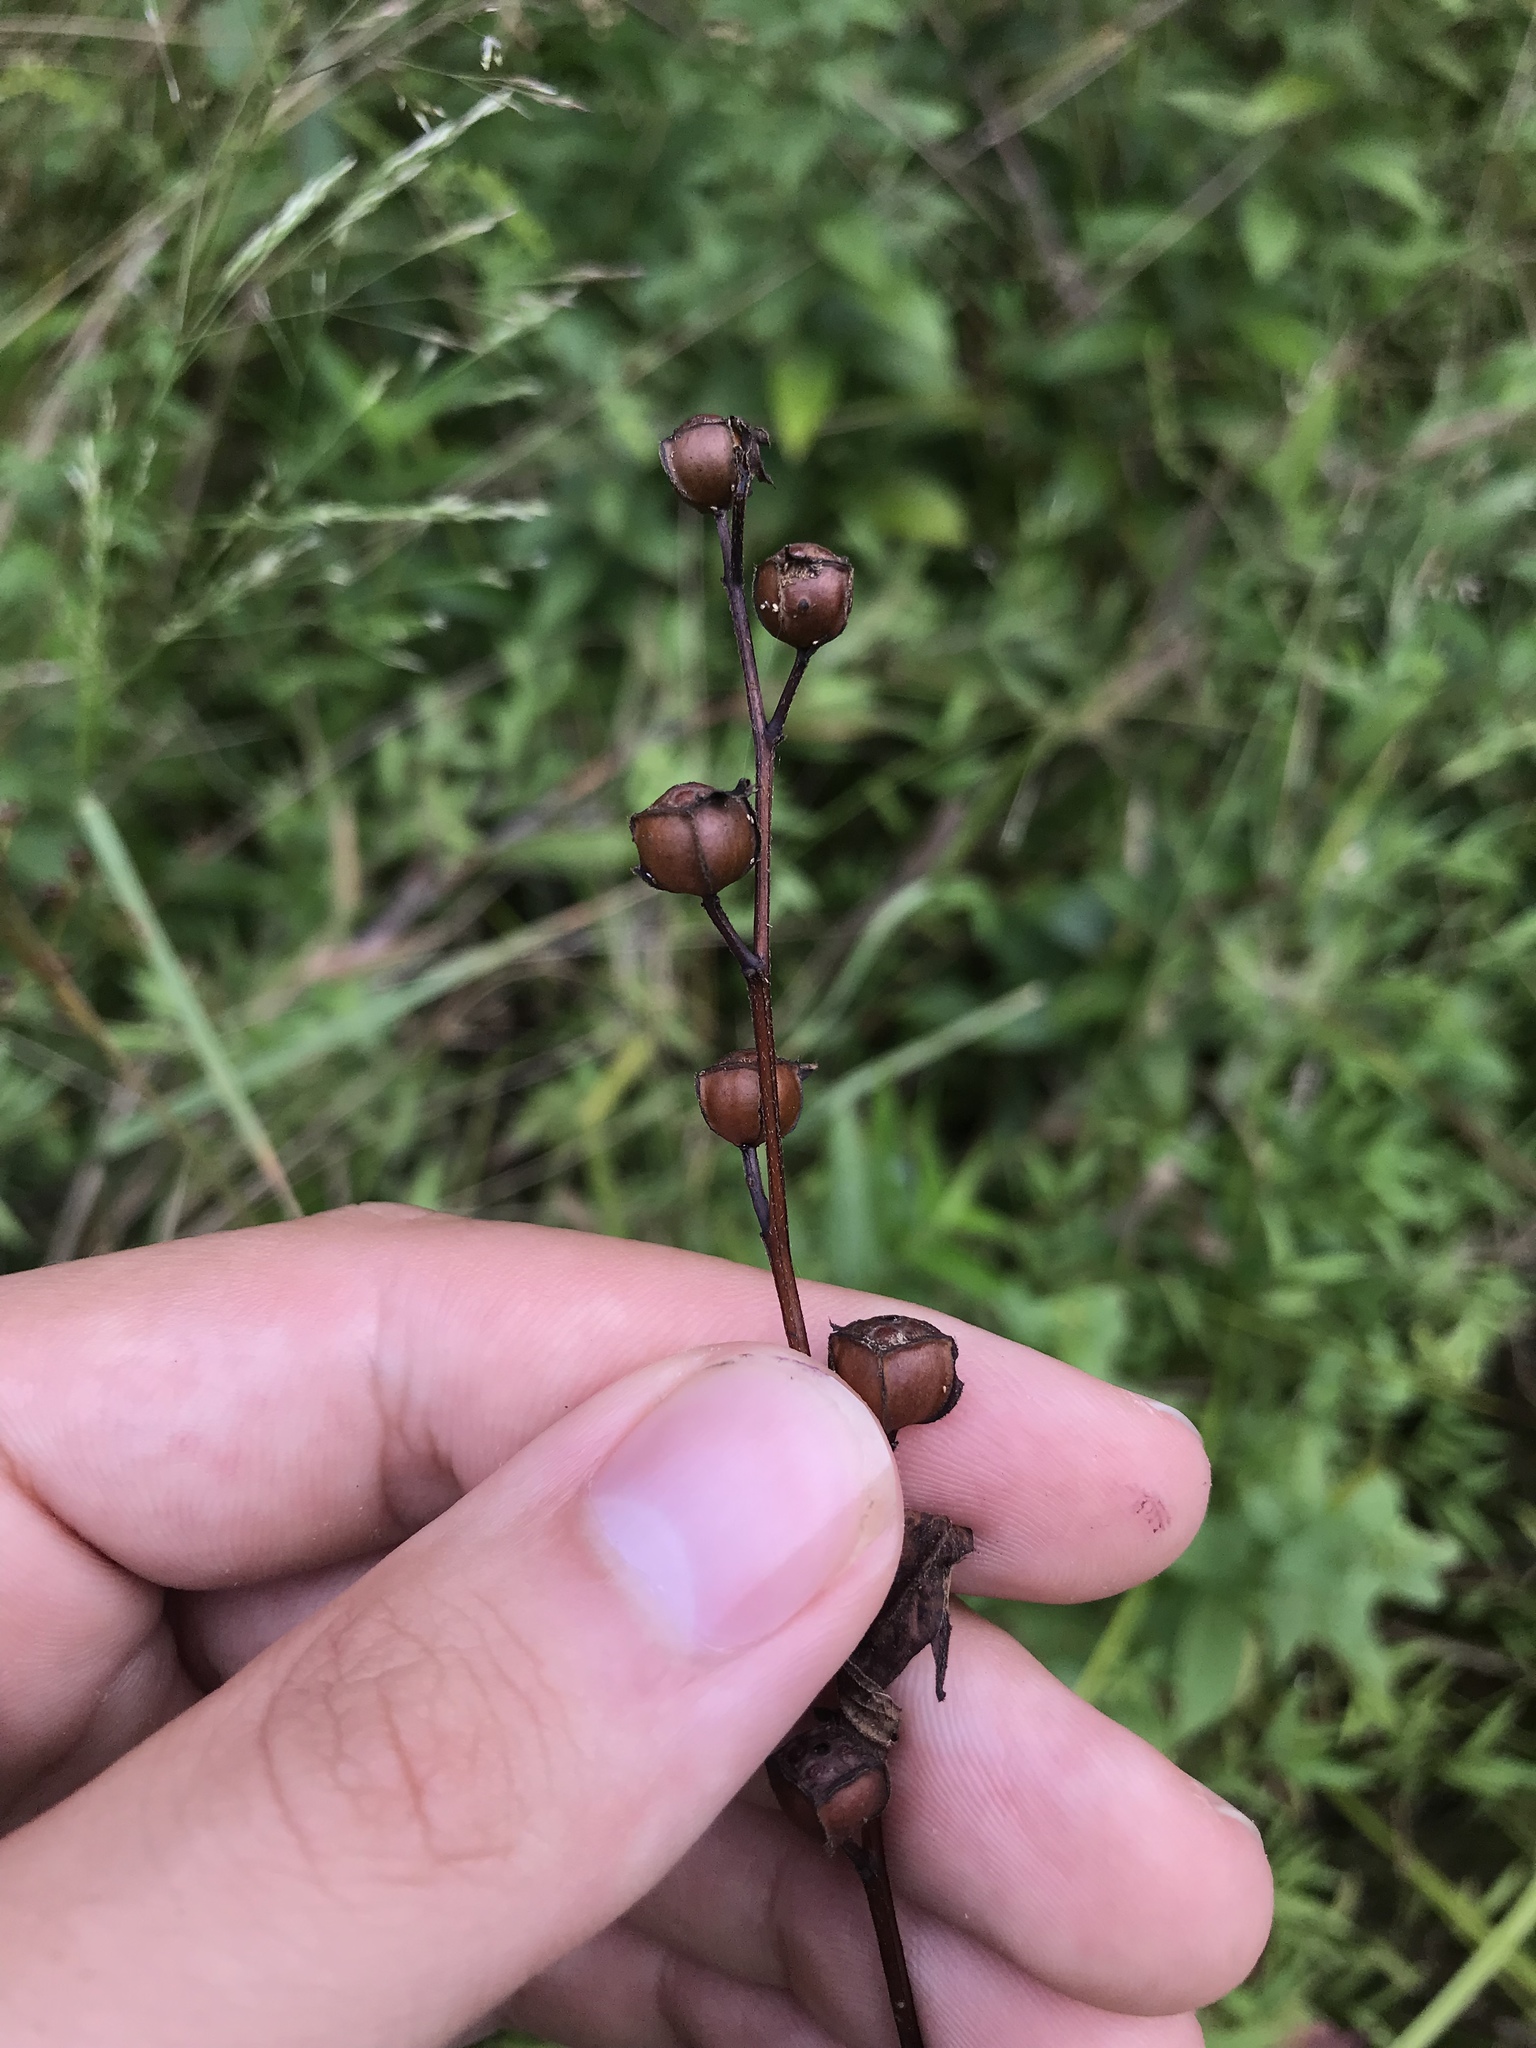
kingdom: Plantae
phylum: Tracheophyta
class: Magnoliopsida
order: Myrtales
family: Onagraceae
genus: Ludwigia
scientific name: Ludwigia alternifolia
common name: Rattlebox
